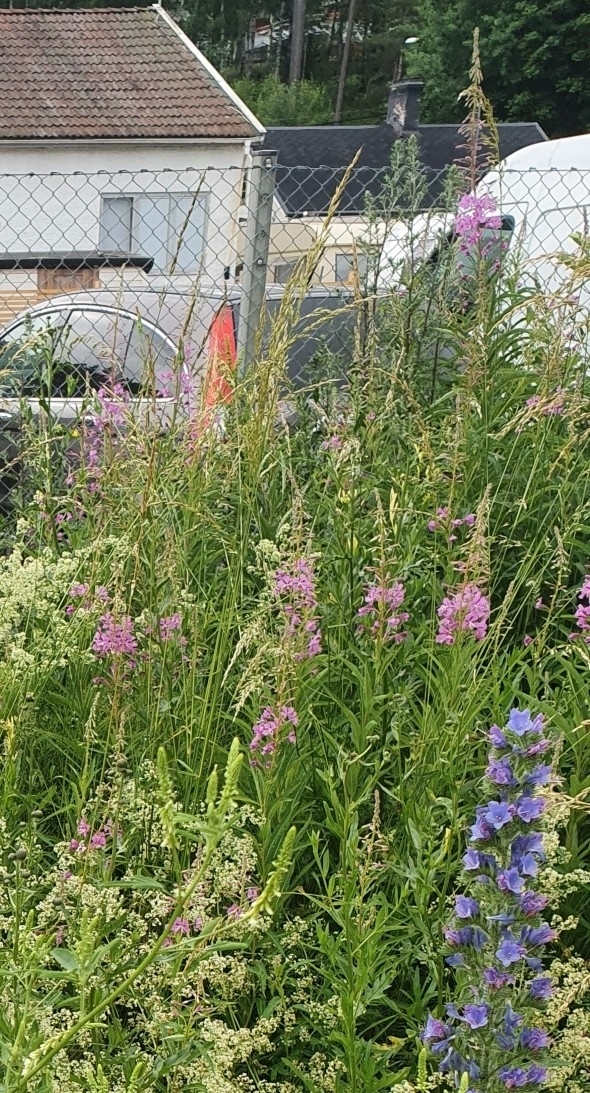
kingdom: Plantae
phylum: Tracheophyta
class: Magnoliopsida
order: Myrtales
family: Onagraceae
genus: Chamaenerion
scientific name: Chamaenerion angustifolium
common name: Fireweed
